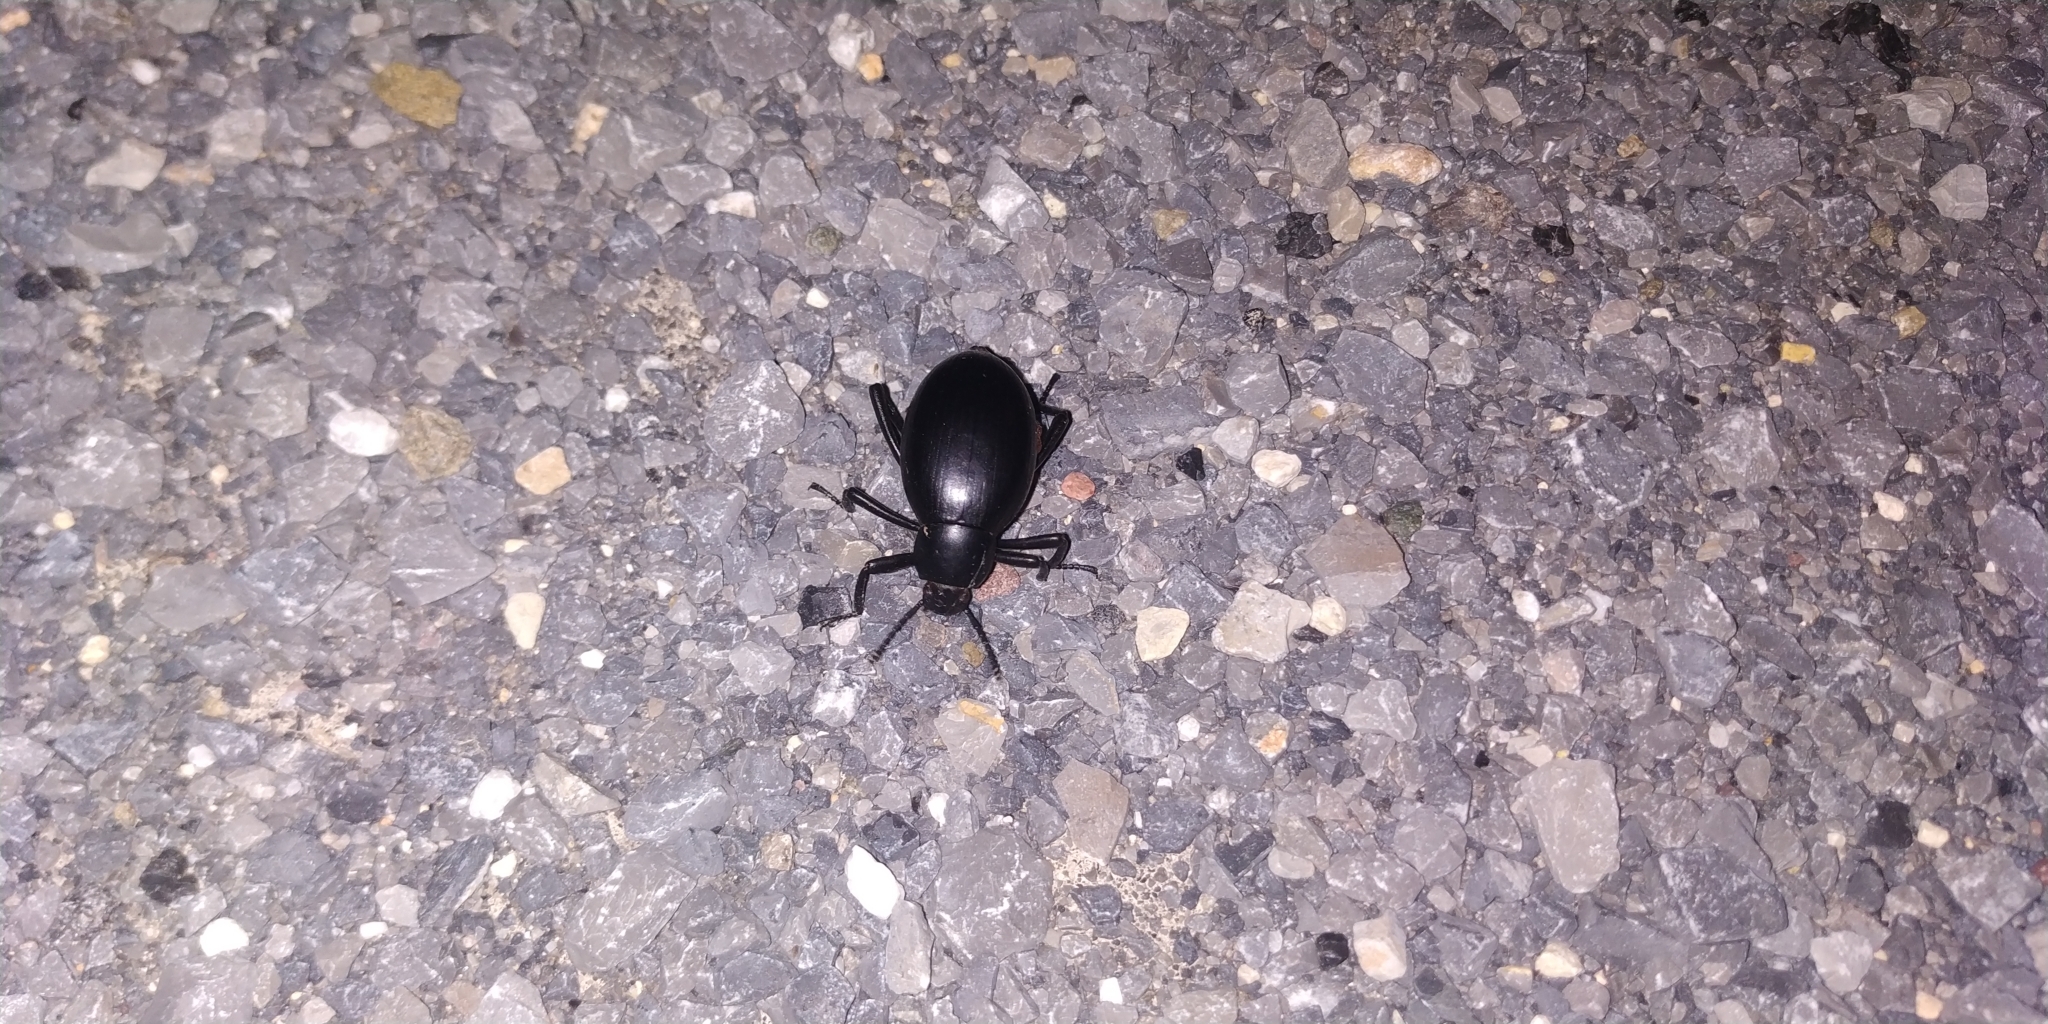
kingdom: Animalia
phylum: Arthropoda
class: Insecta
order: Coleoptera
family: Tenebrionidae
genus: Eleodes
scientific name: Eleodes spinipes
